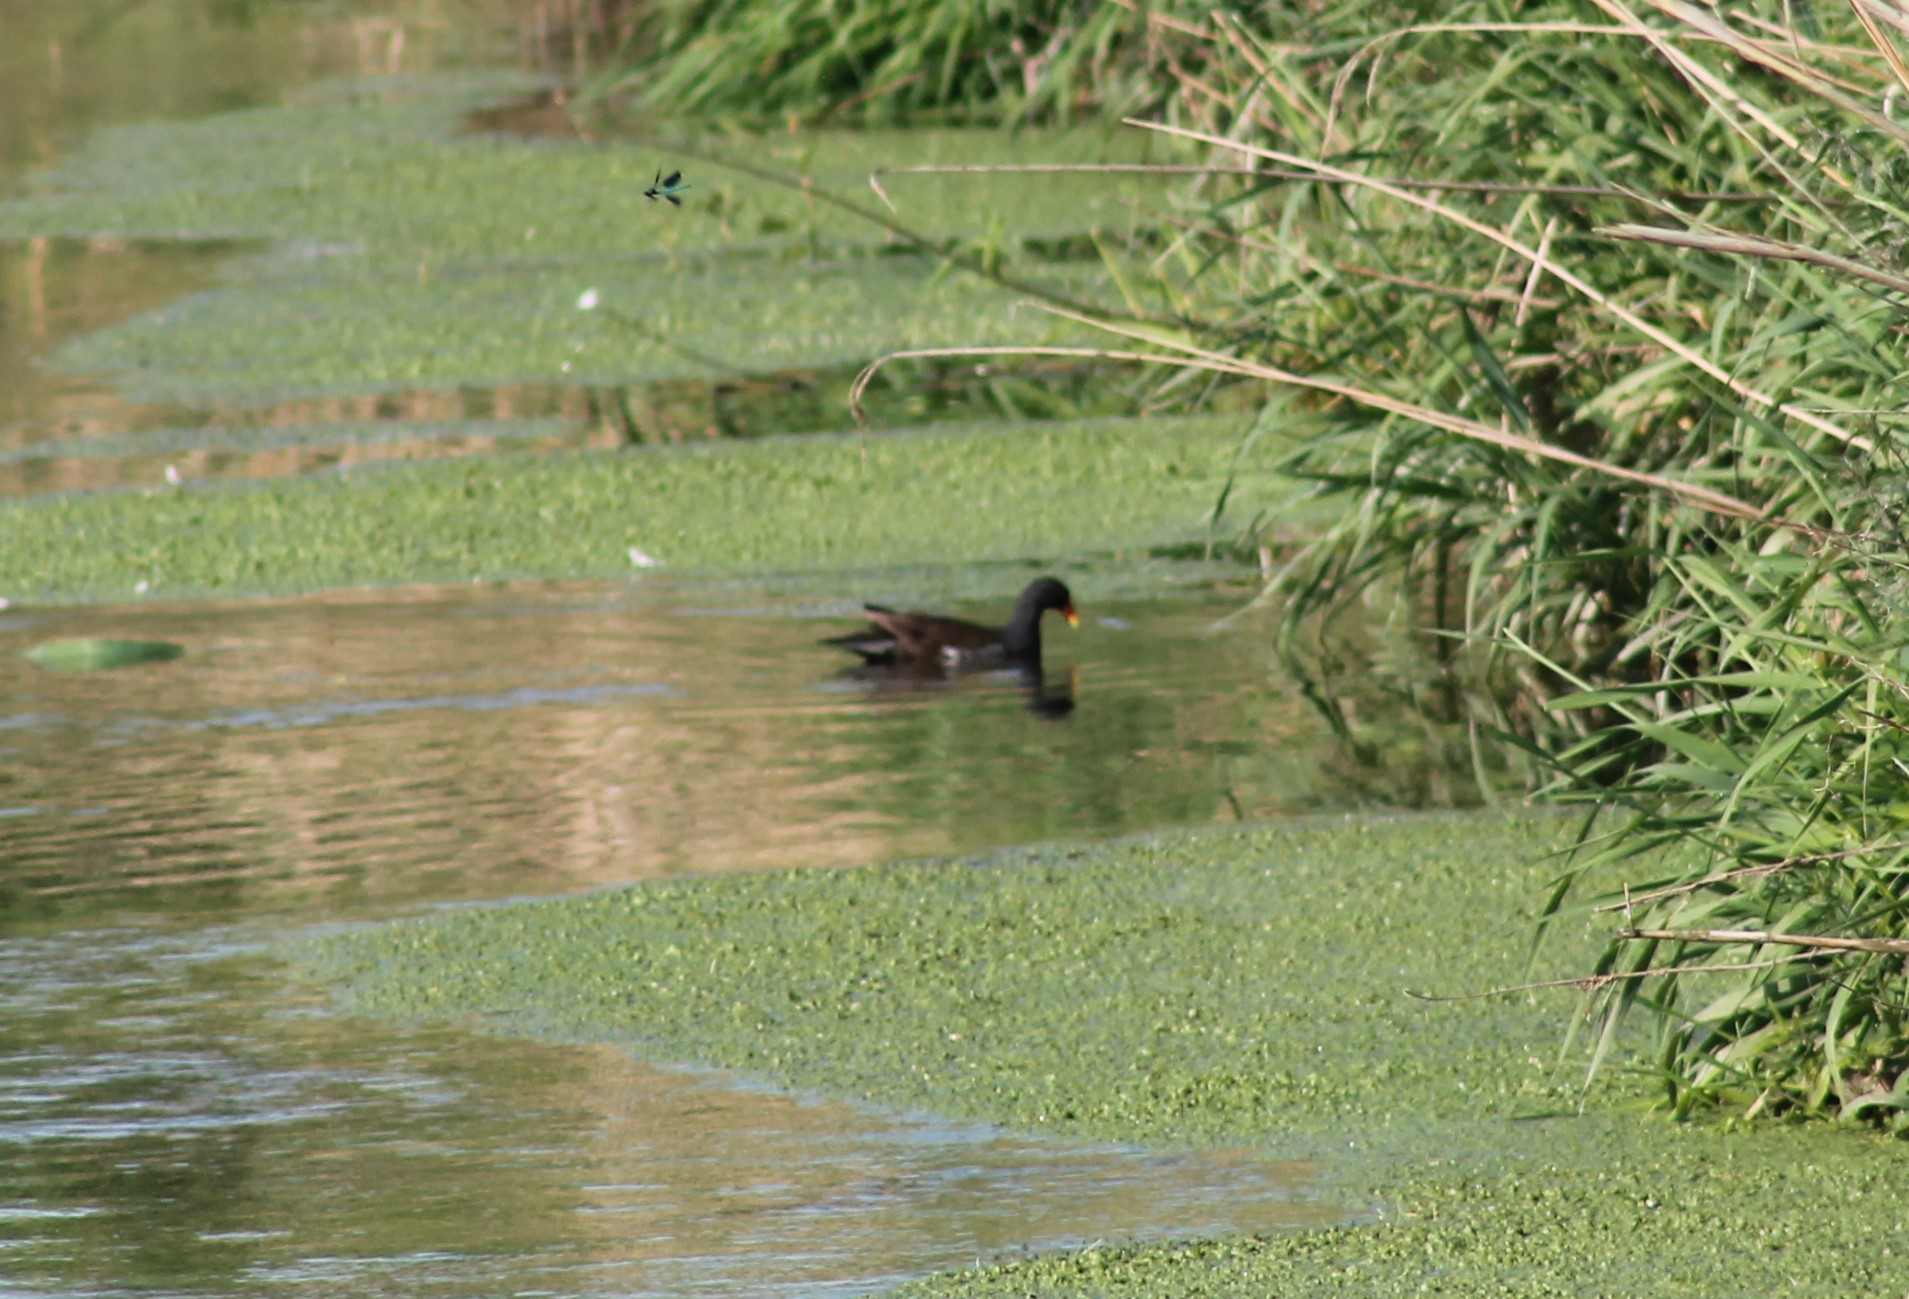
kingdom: Animalia
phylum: Chordata
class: Aves
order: Gruiformes
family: Rallidae
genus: Gallinula
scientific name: Gallinula chloropus
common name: Common moorhen
